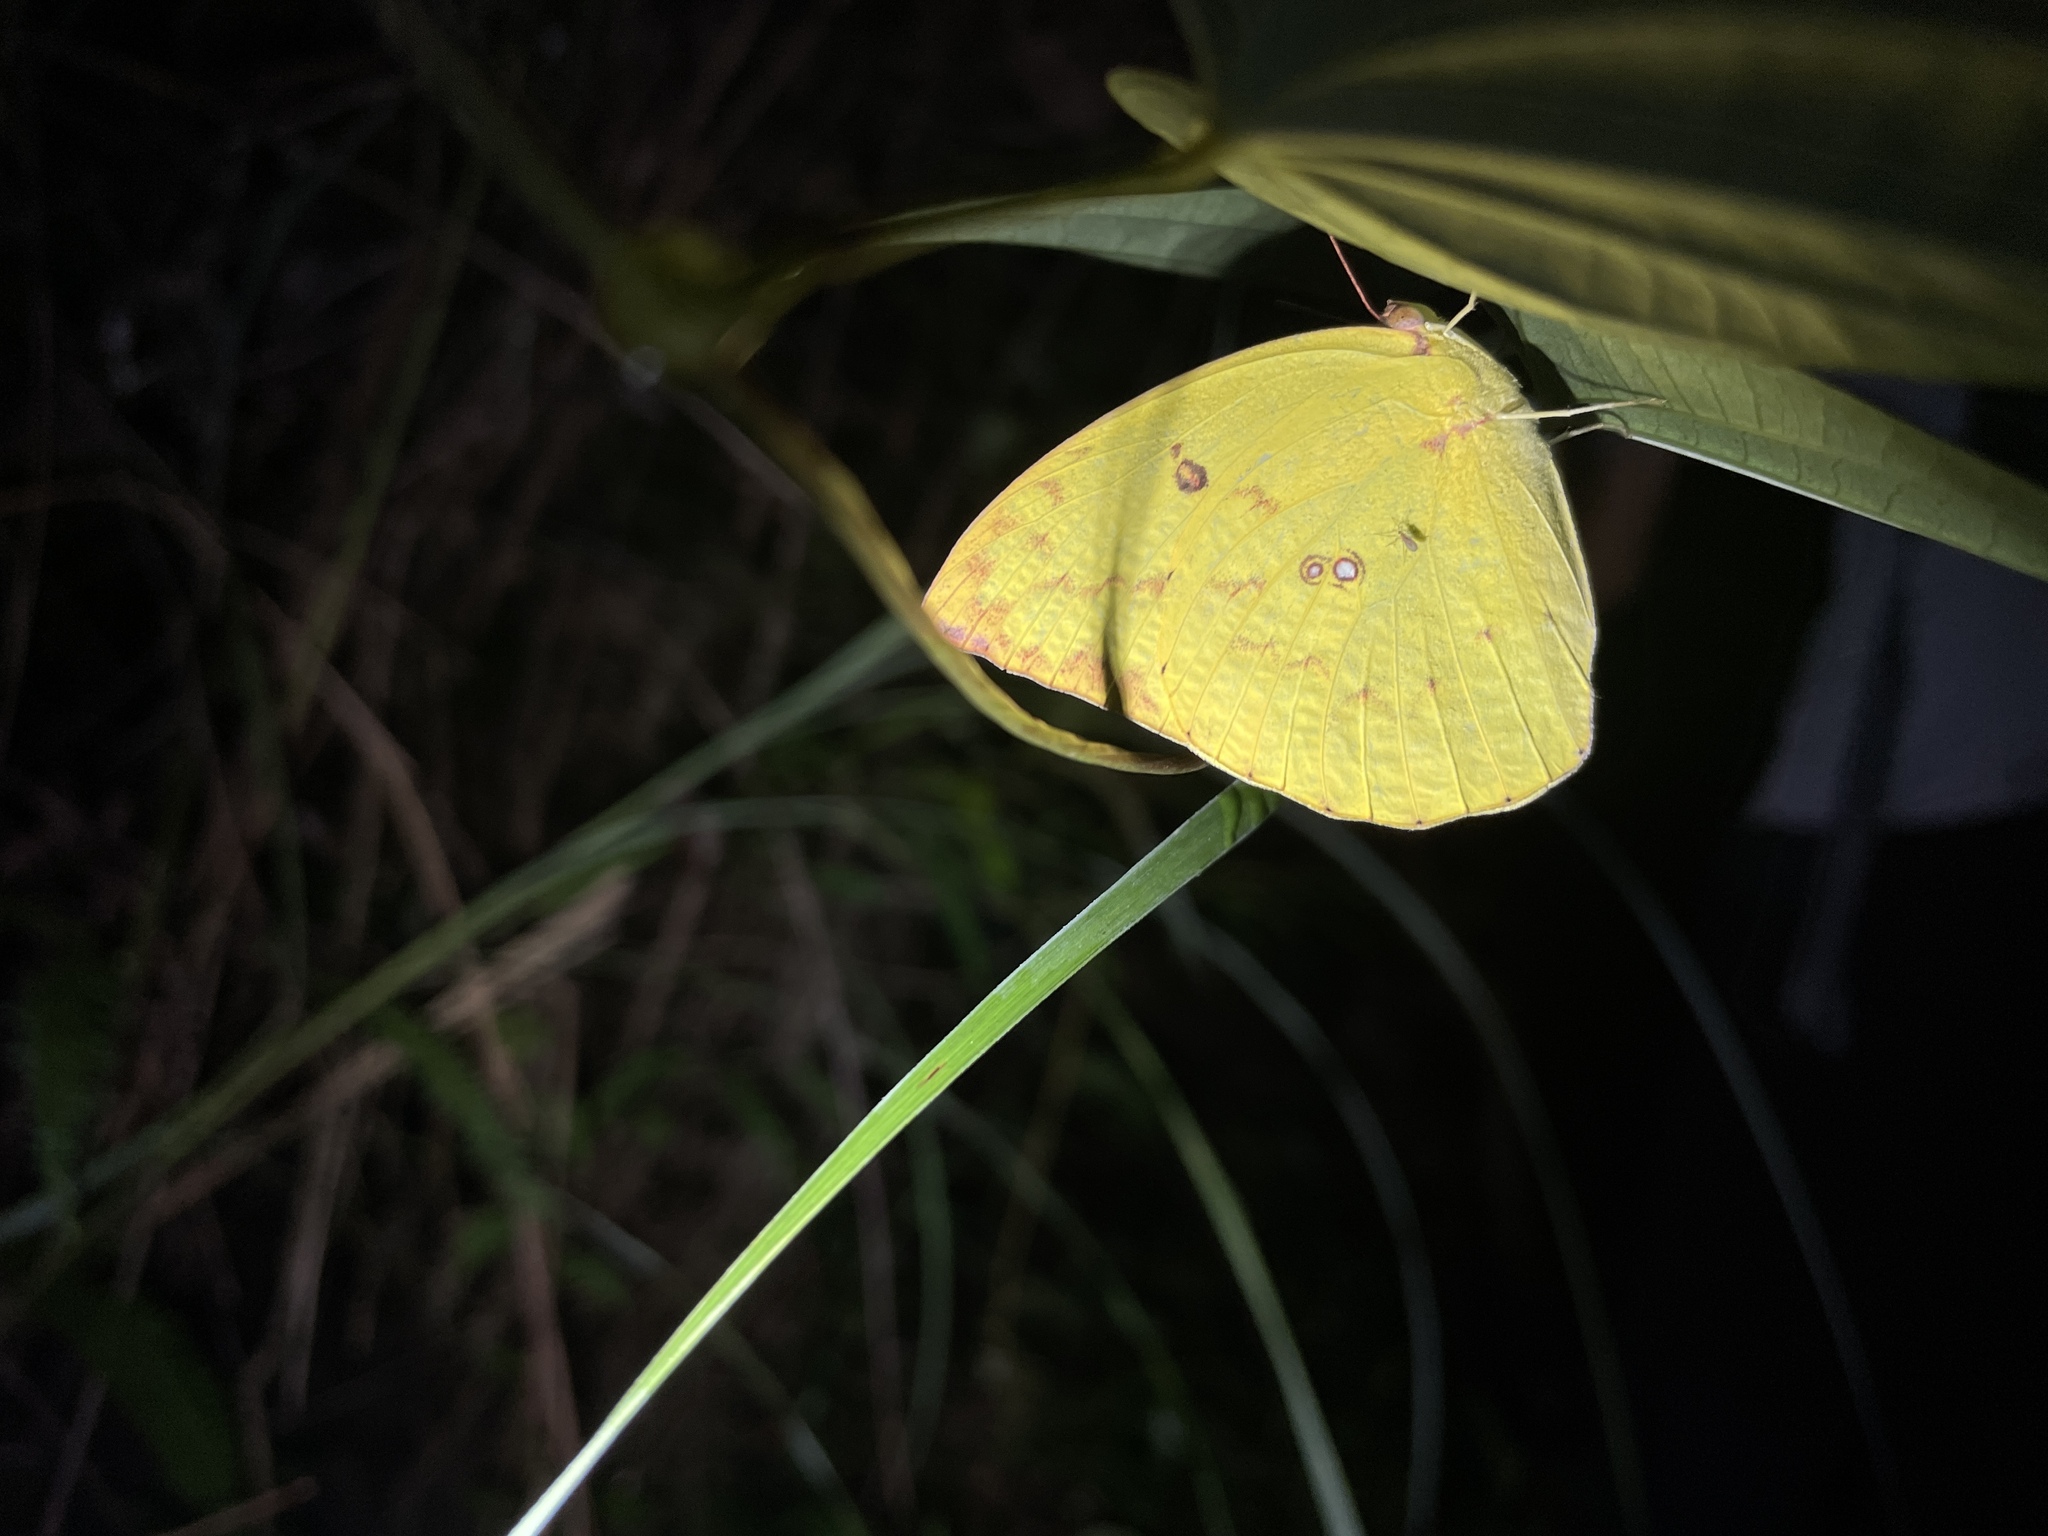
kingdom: Animalia
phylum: Arthropoda
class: Insecta
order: Lepidoptera
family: Pieridae
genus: Catopsilia
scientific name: Catopsilia pomona
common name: Common emigrant
